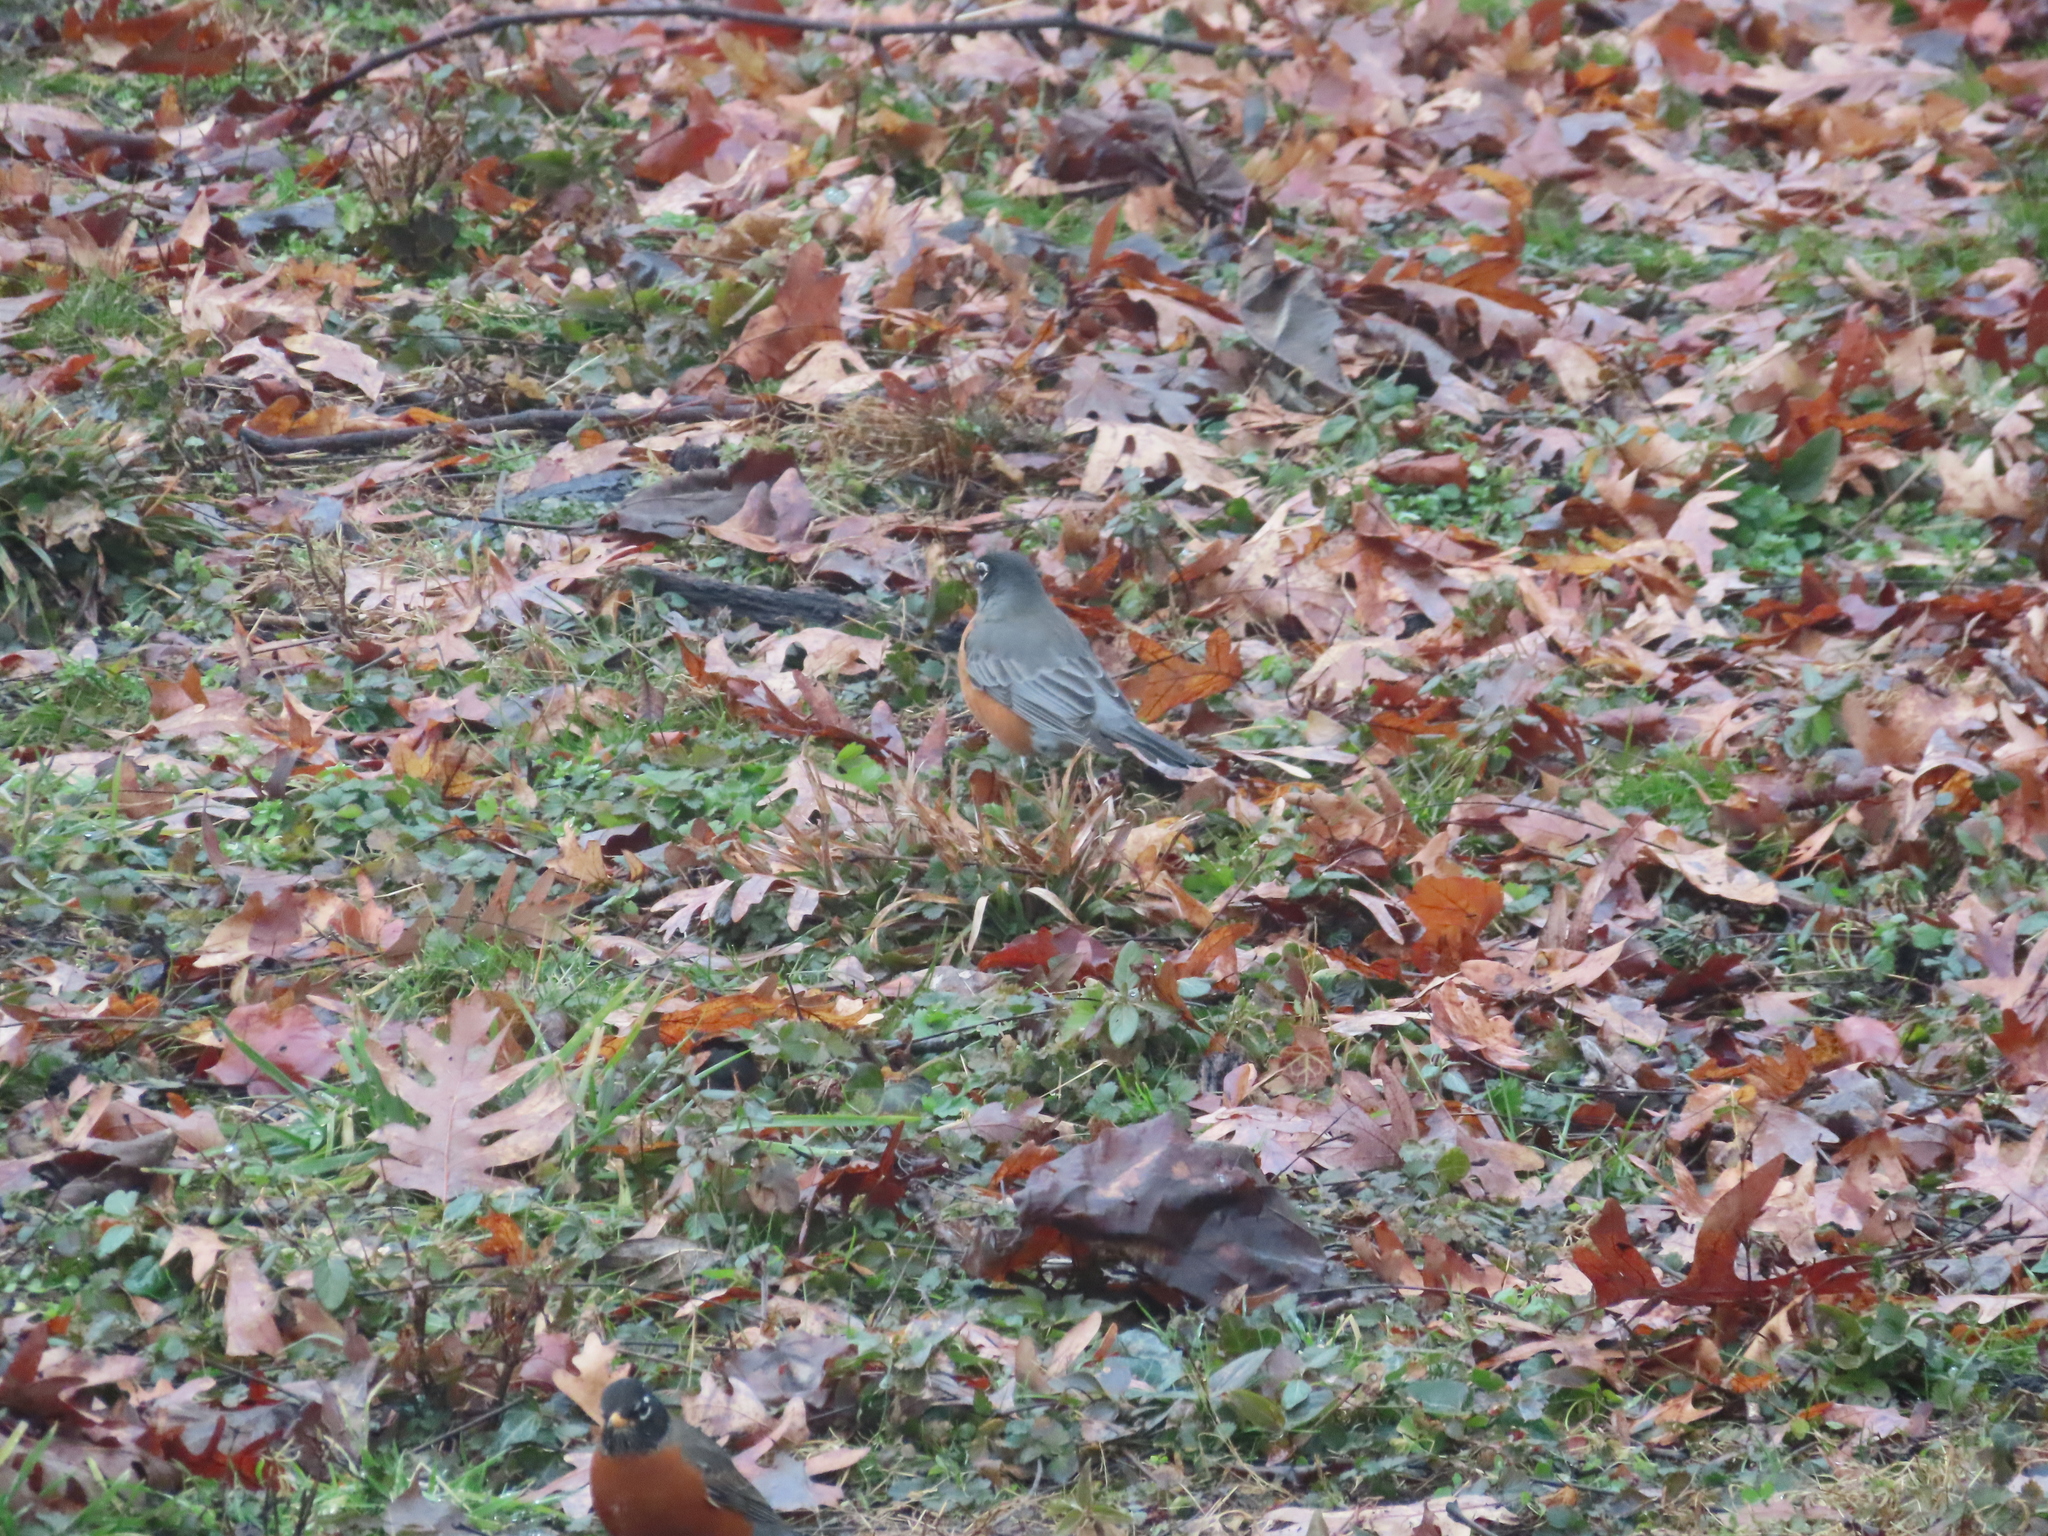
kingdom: Animalia
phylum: Chordata
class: Aves
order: Passeriformes
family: Turdidae
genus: Turdus
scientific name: Turdus migratorius
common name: American robin
